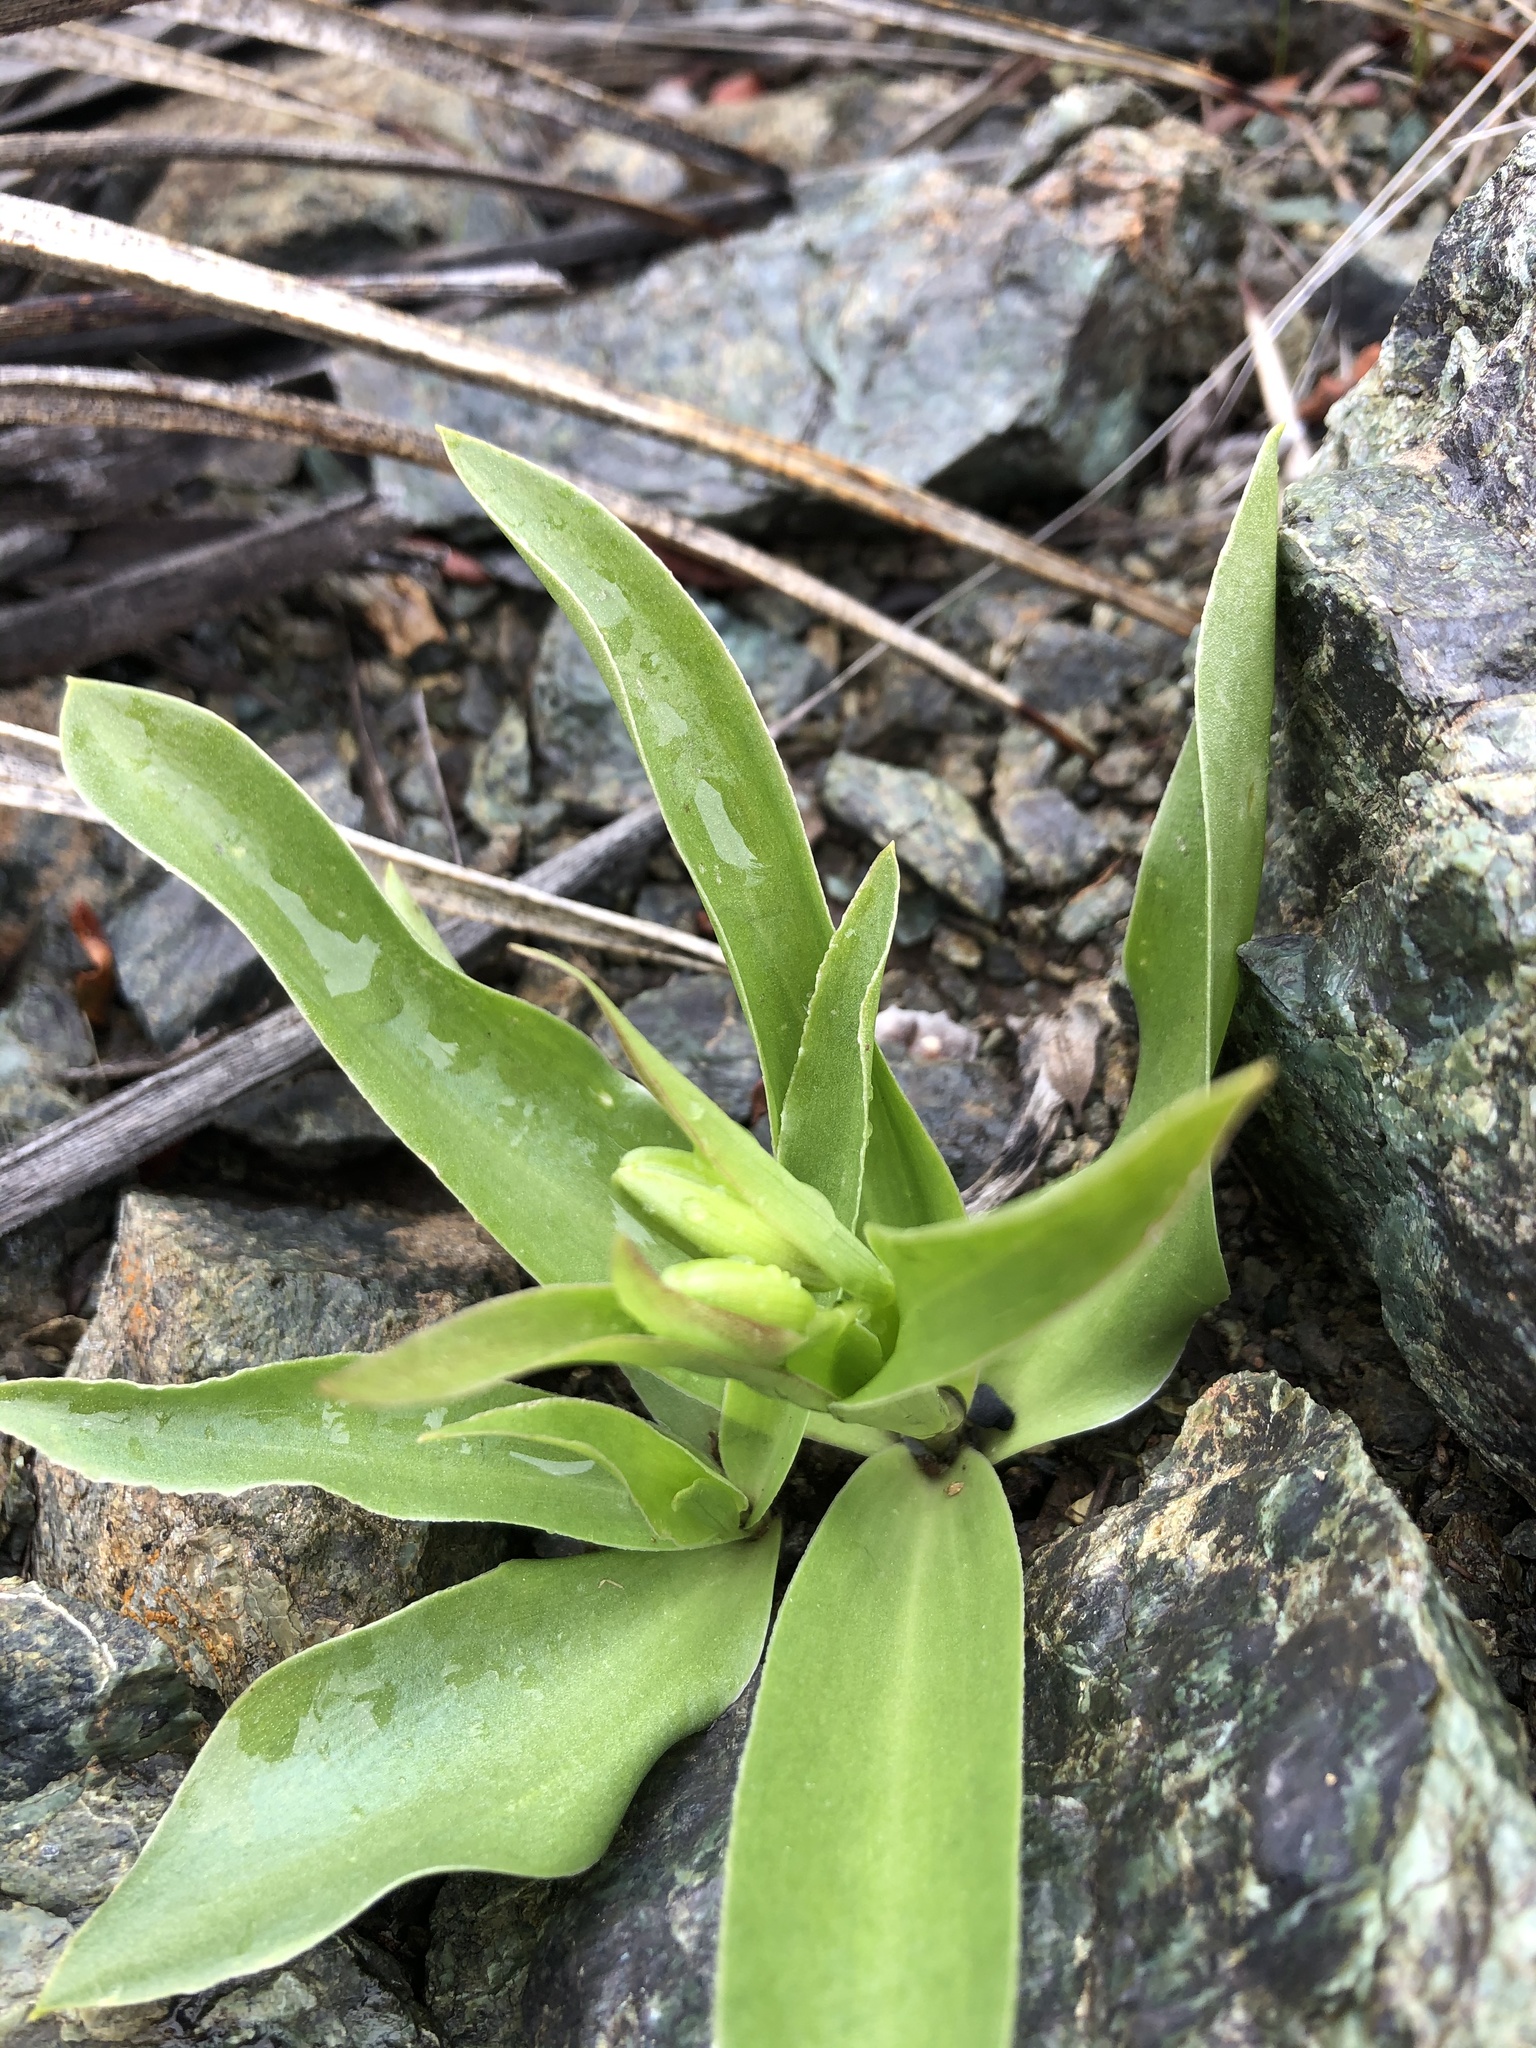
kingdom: Plantae
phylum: Tracheophyta
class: Liliopsida
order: Liliales
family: Liliaceae
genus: Fritillaria
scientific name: Fritillaria biflora
